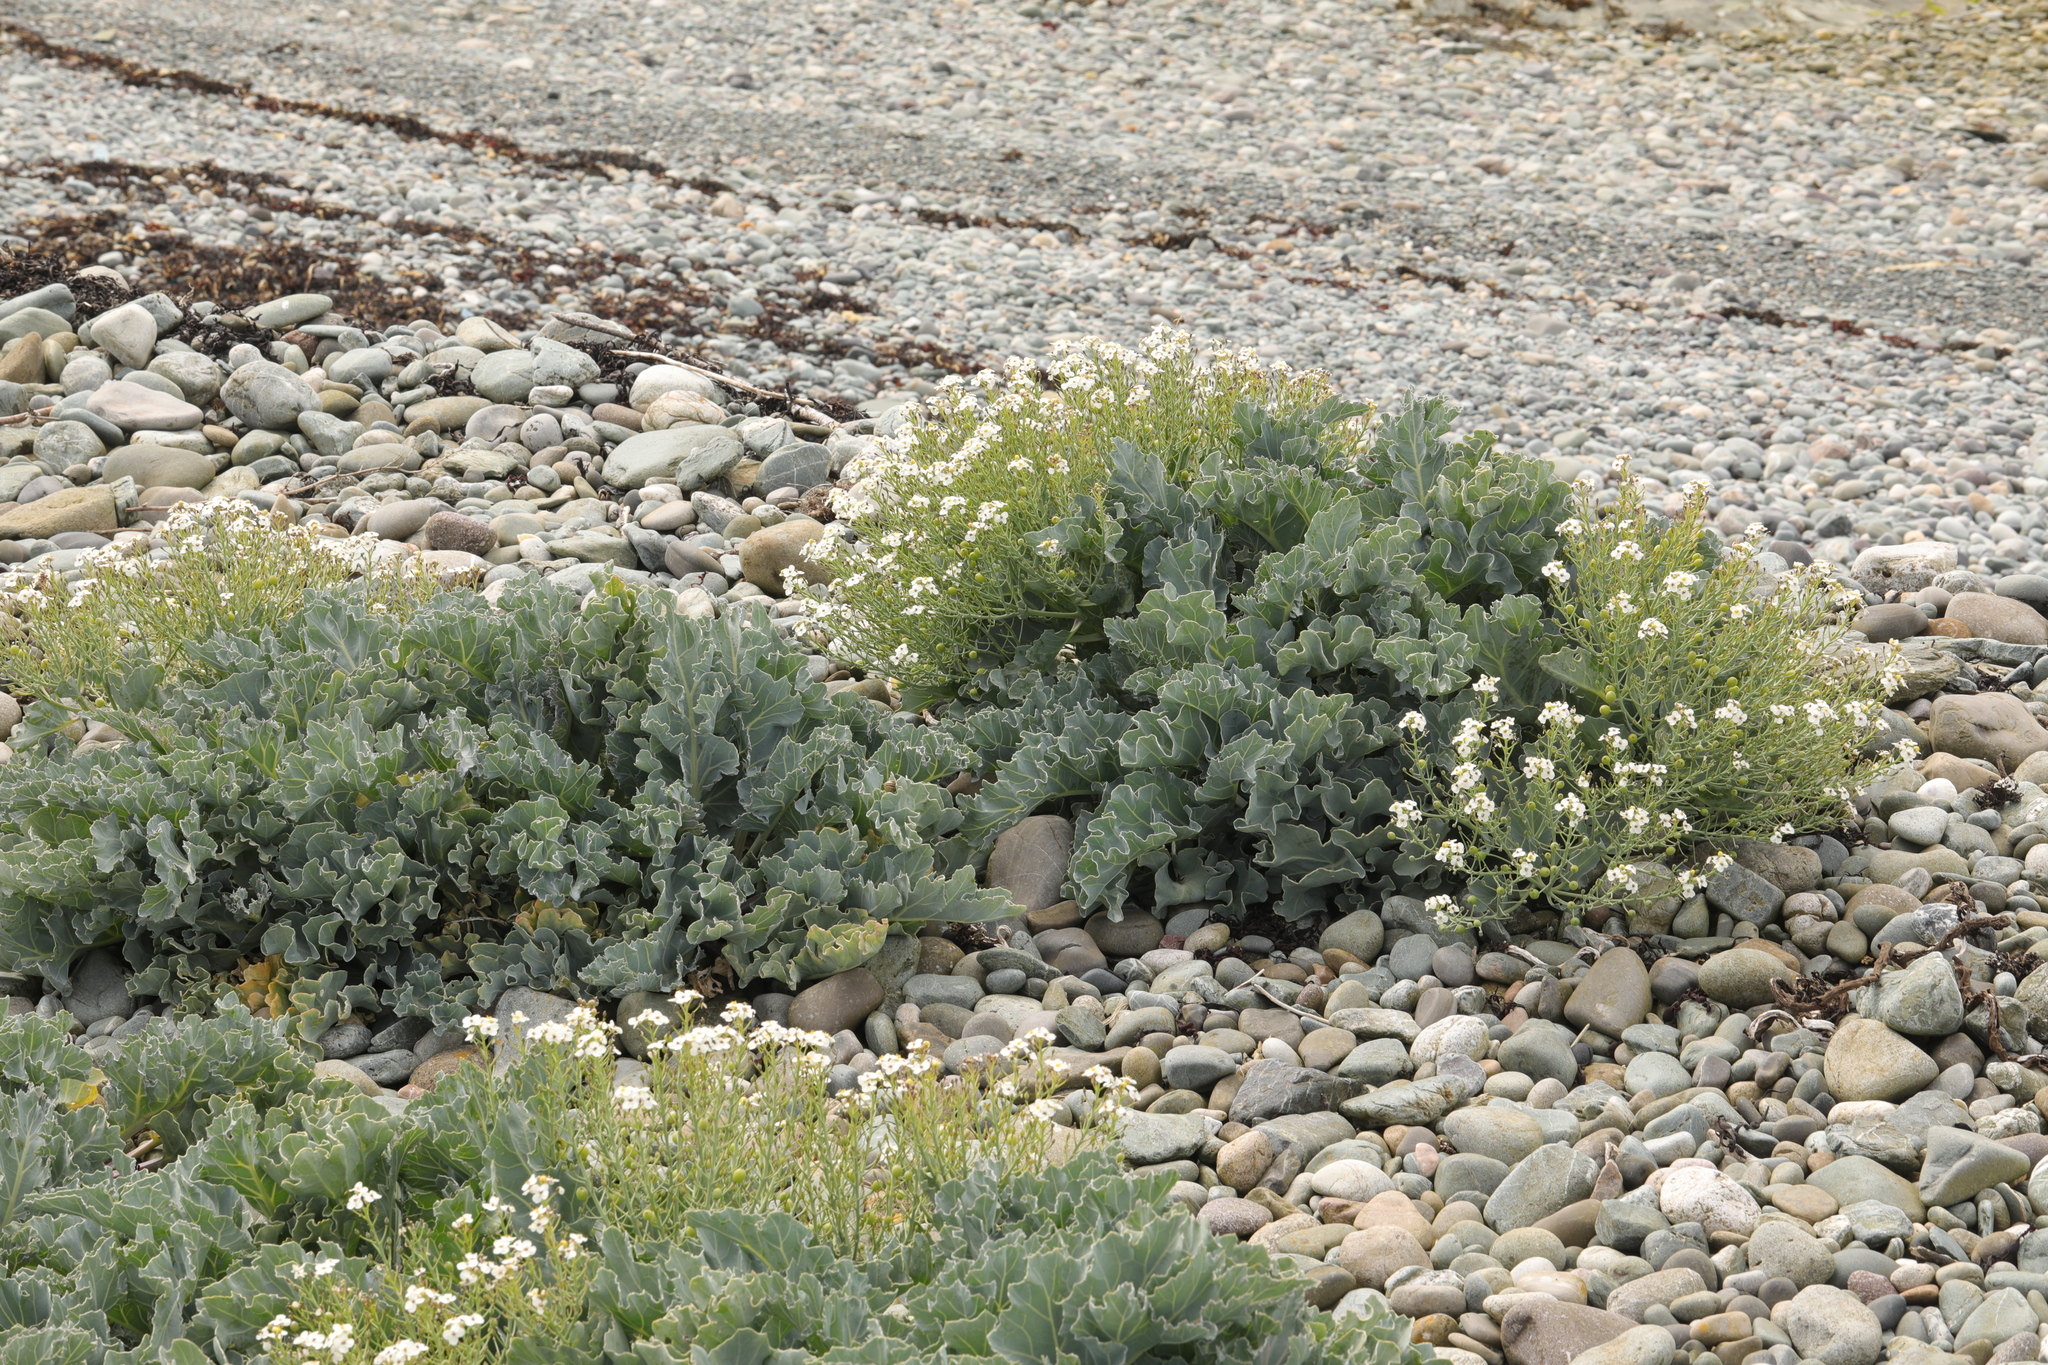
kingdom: Plantae
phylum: Tracheophyta
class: Magnoliopsida
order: Brassicales
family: Brassicaceae
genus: Crambe
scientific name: Crambe maritima
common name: Sea-kale
